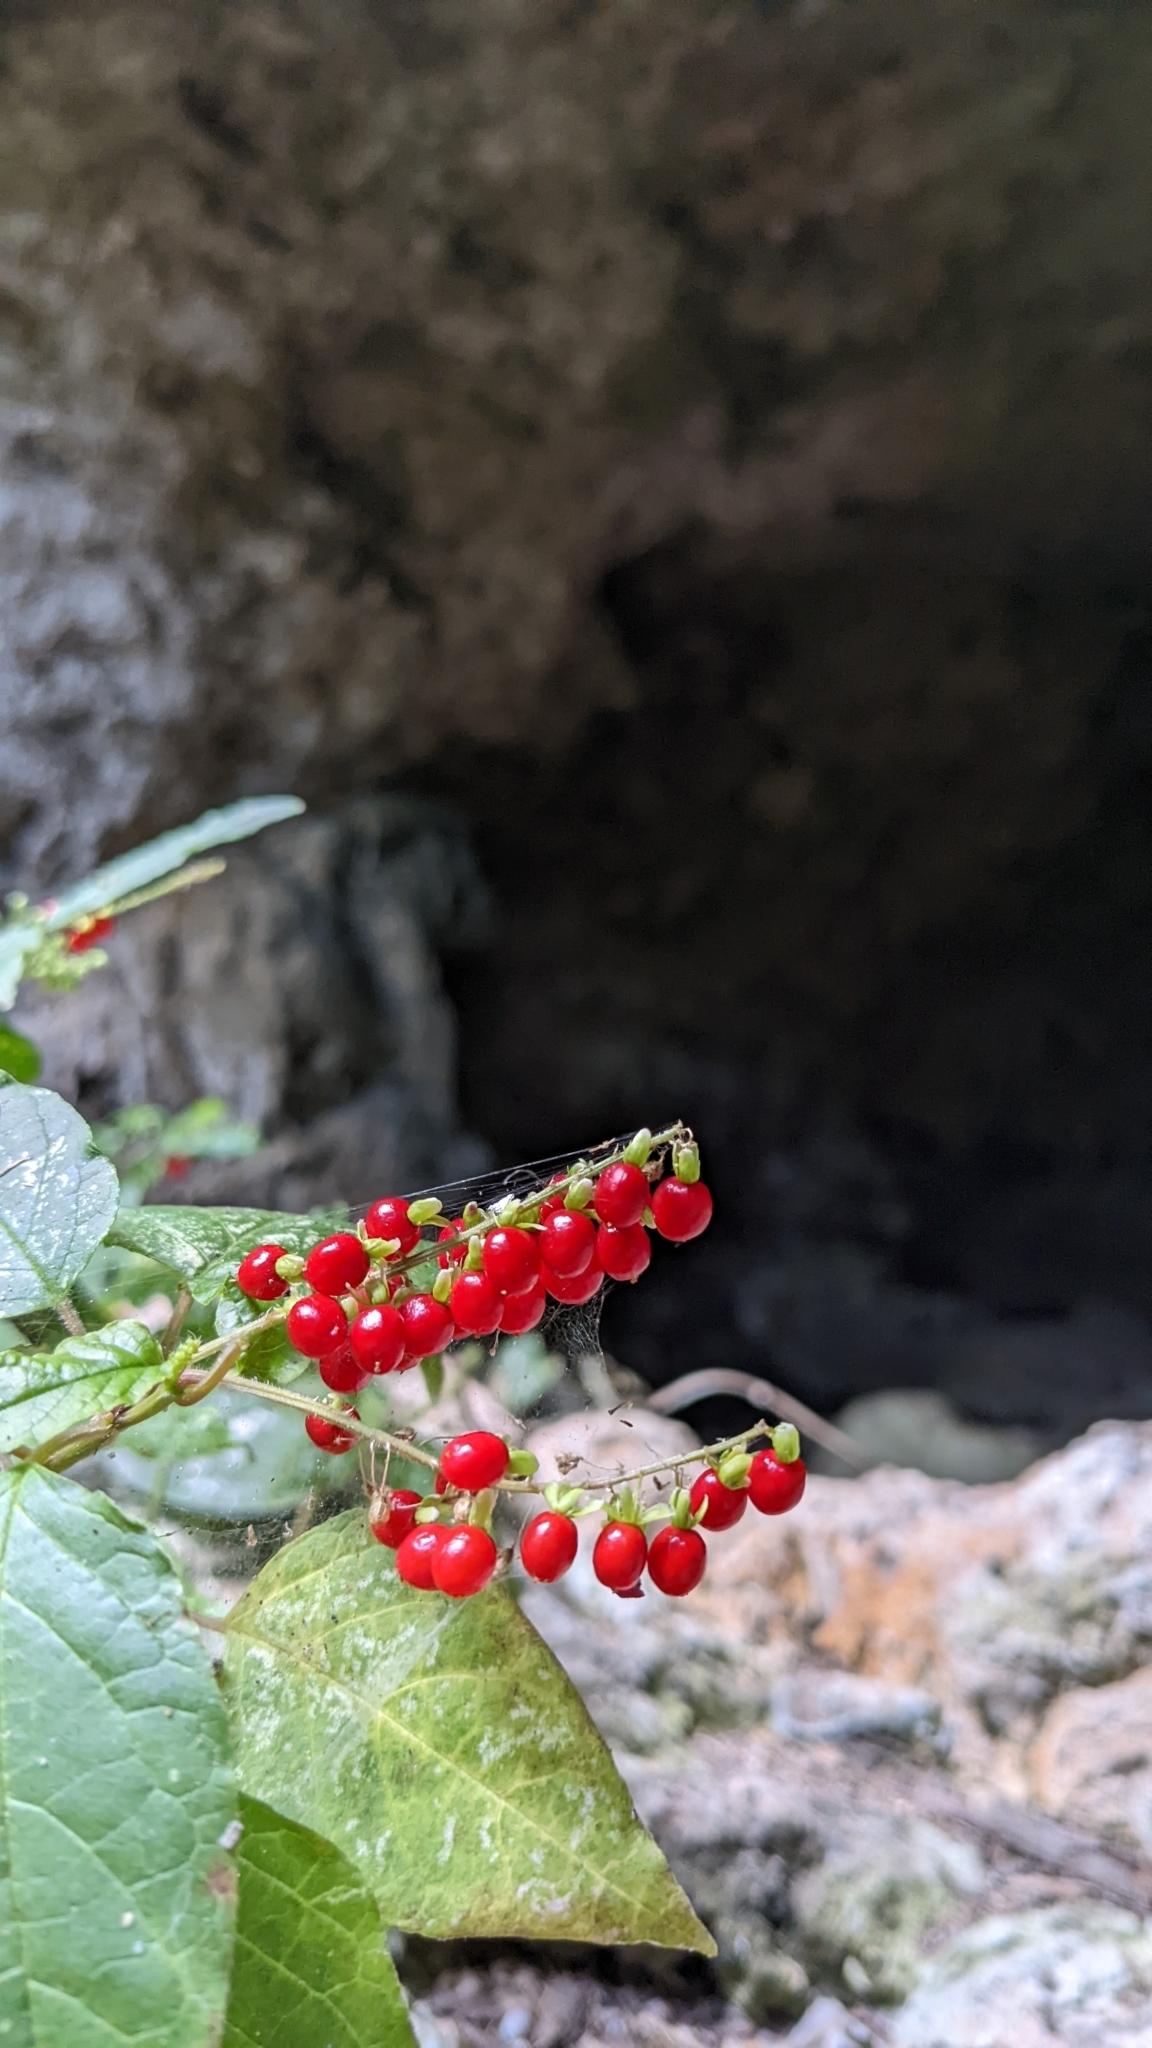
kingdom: Plantae
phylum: Tracheophyta
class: Magnoliopsida
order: Caryophyllales
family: Phytolaccaceae
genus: Rivina
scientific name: Rivina humilis
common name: Rougeplant
